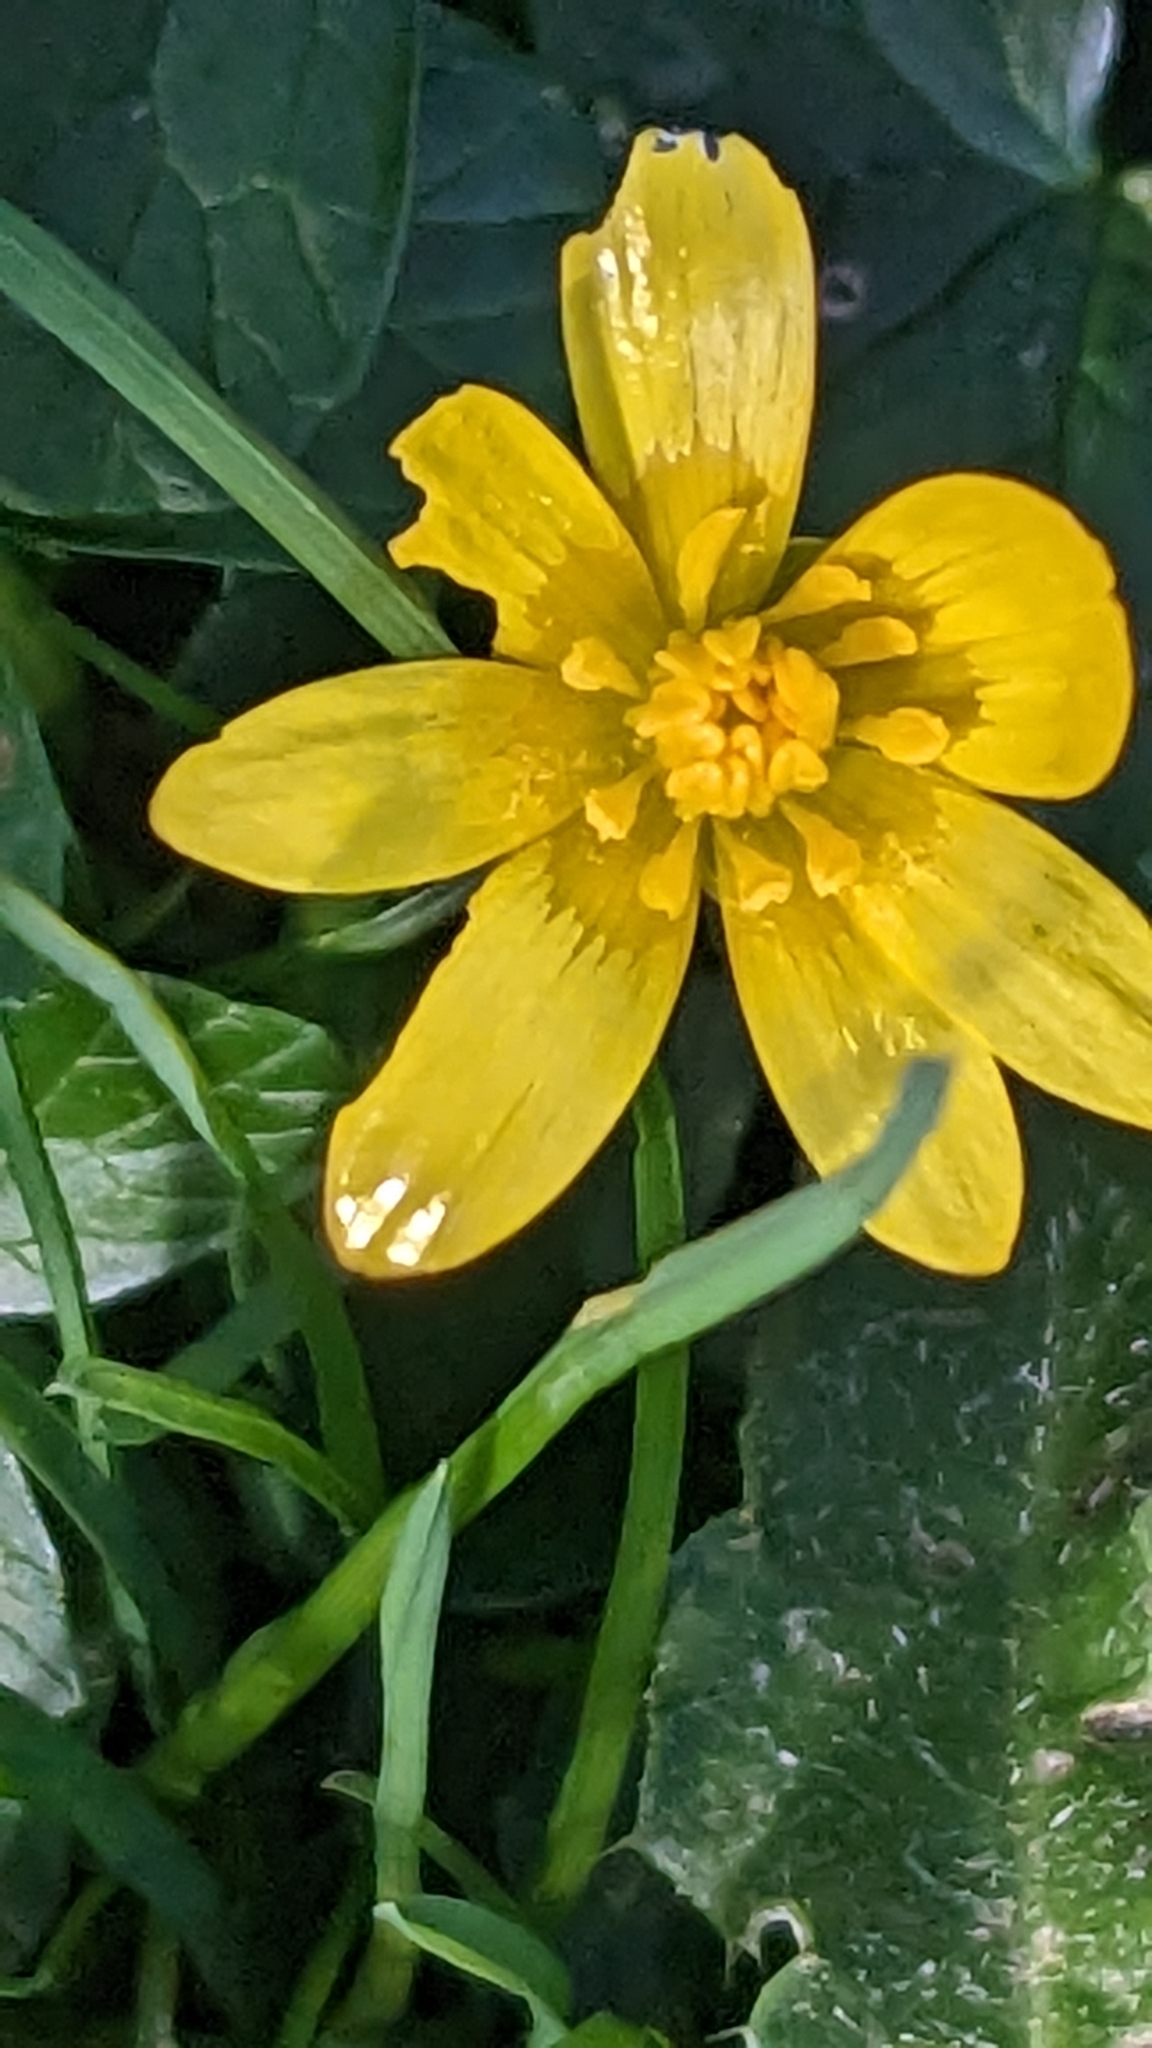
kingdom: Plantae
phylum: Tracheophyta
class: Magnoliopsida
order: Ranunculales
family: Ranunculaceae
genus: Ficaria
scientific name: Ficaria verna
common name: Lesser celandine
